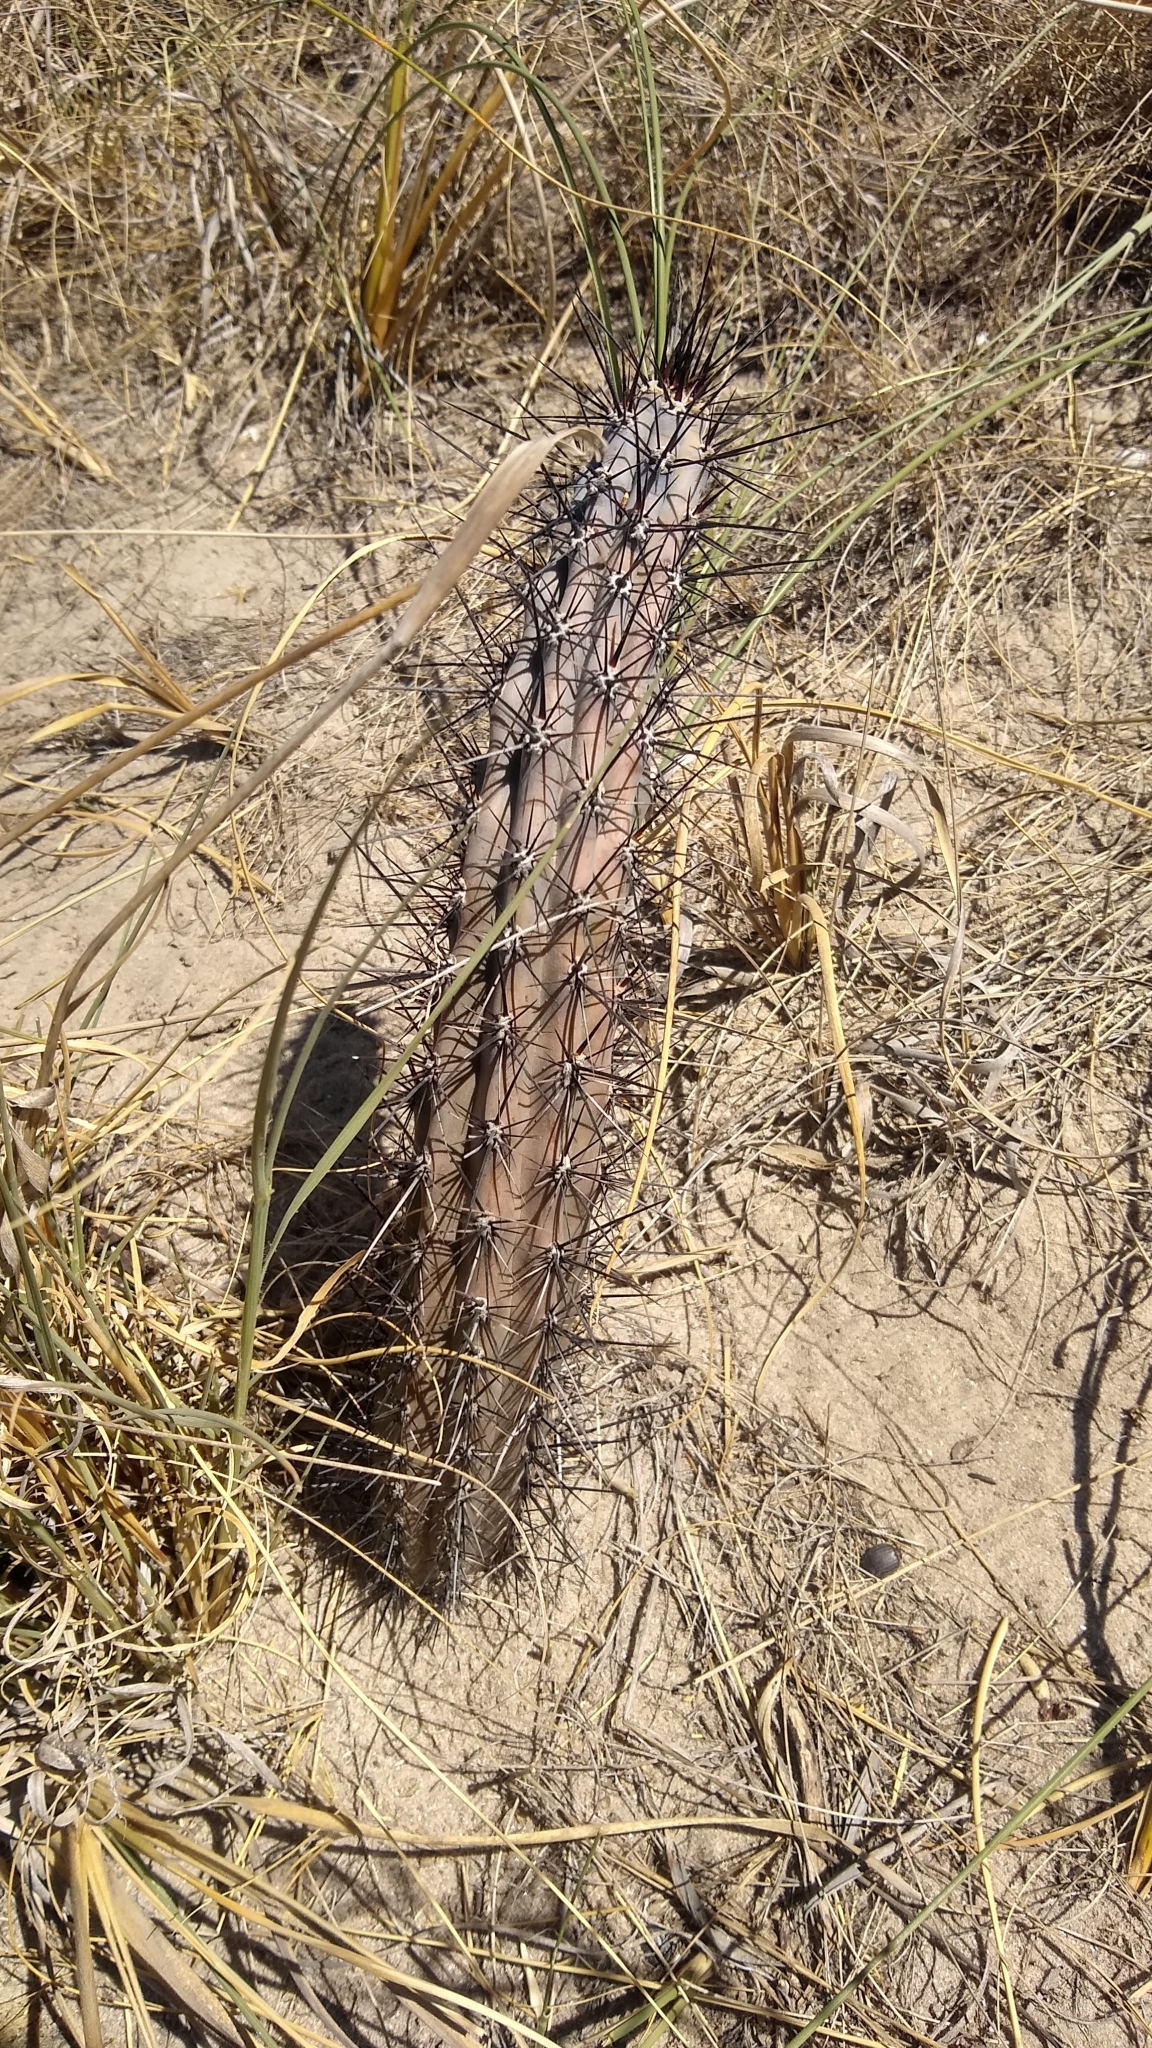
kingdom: Plantae
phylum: Tracheophyta
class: Magnoliopsida
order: Caryophyllales
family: Cactaceae
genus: Cereus
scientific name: Cereus aethiops
